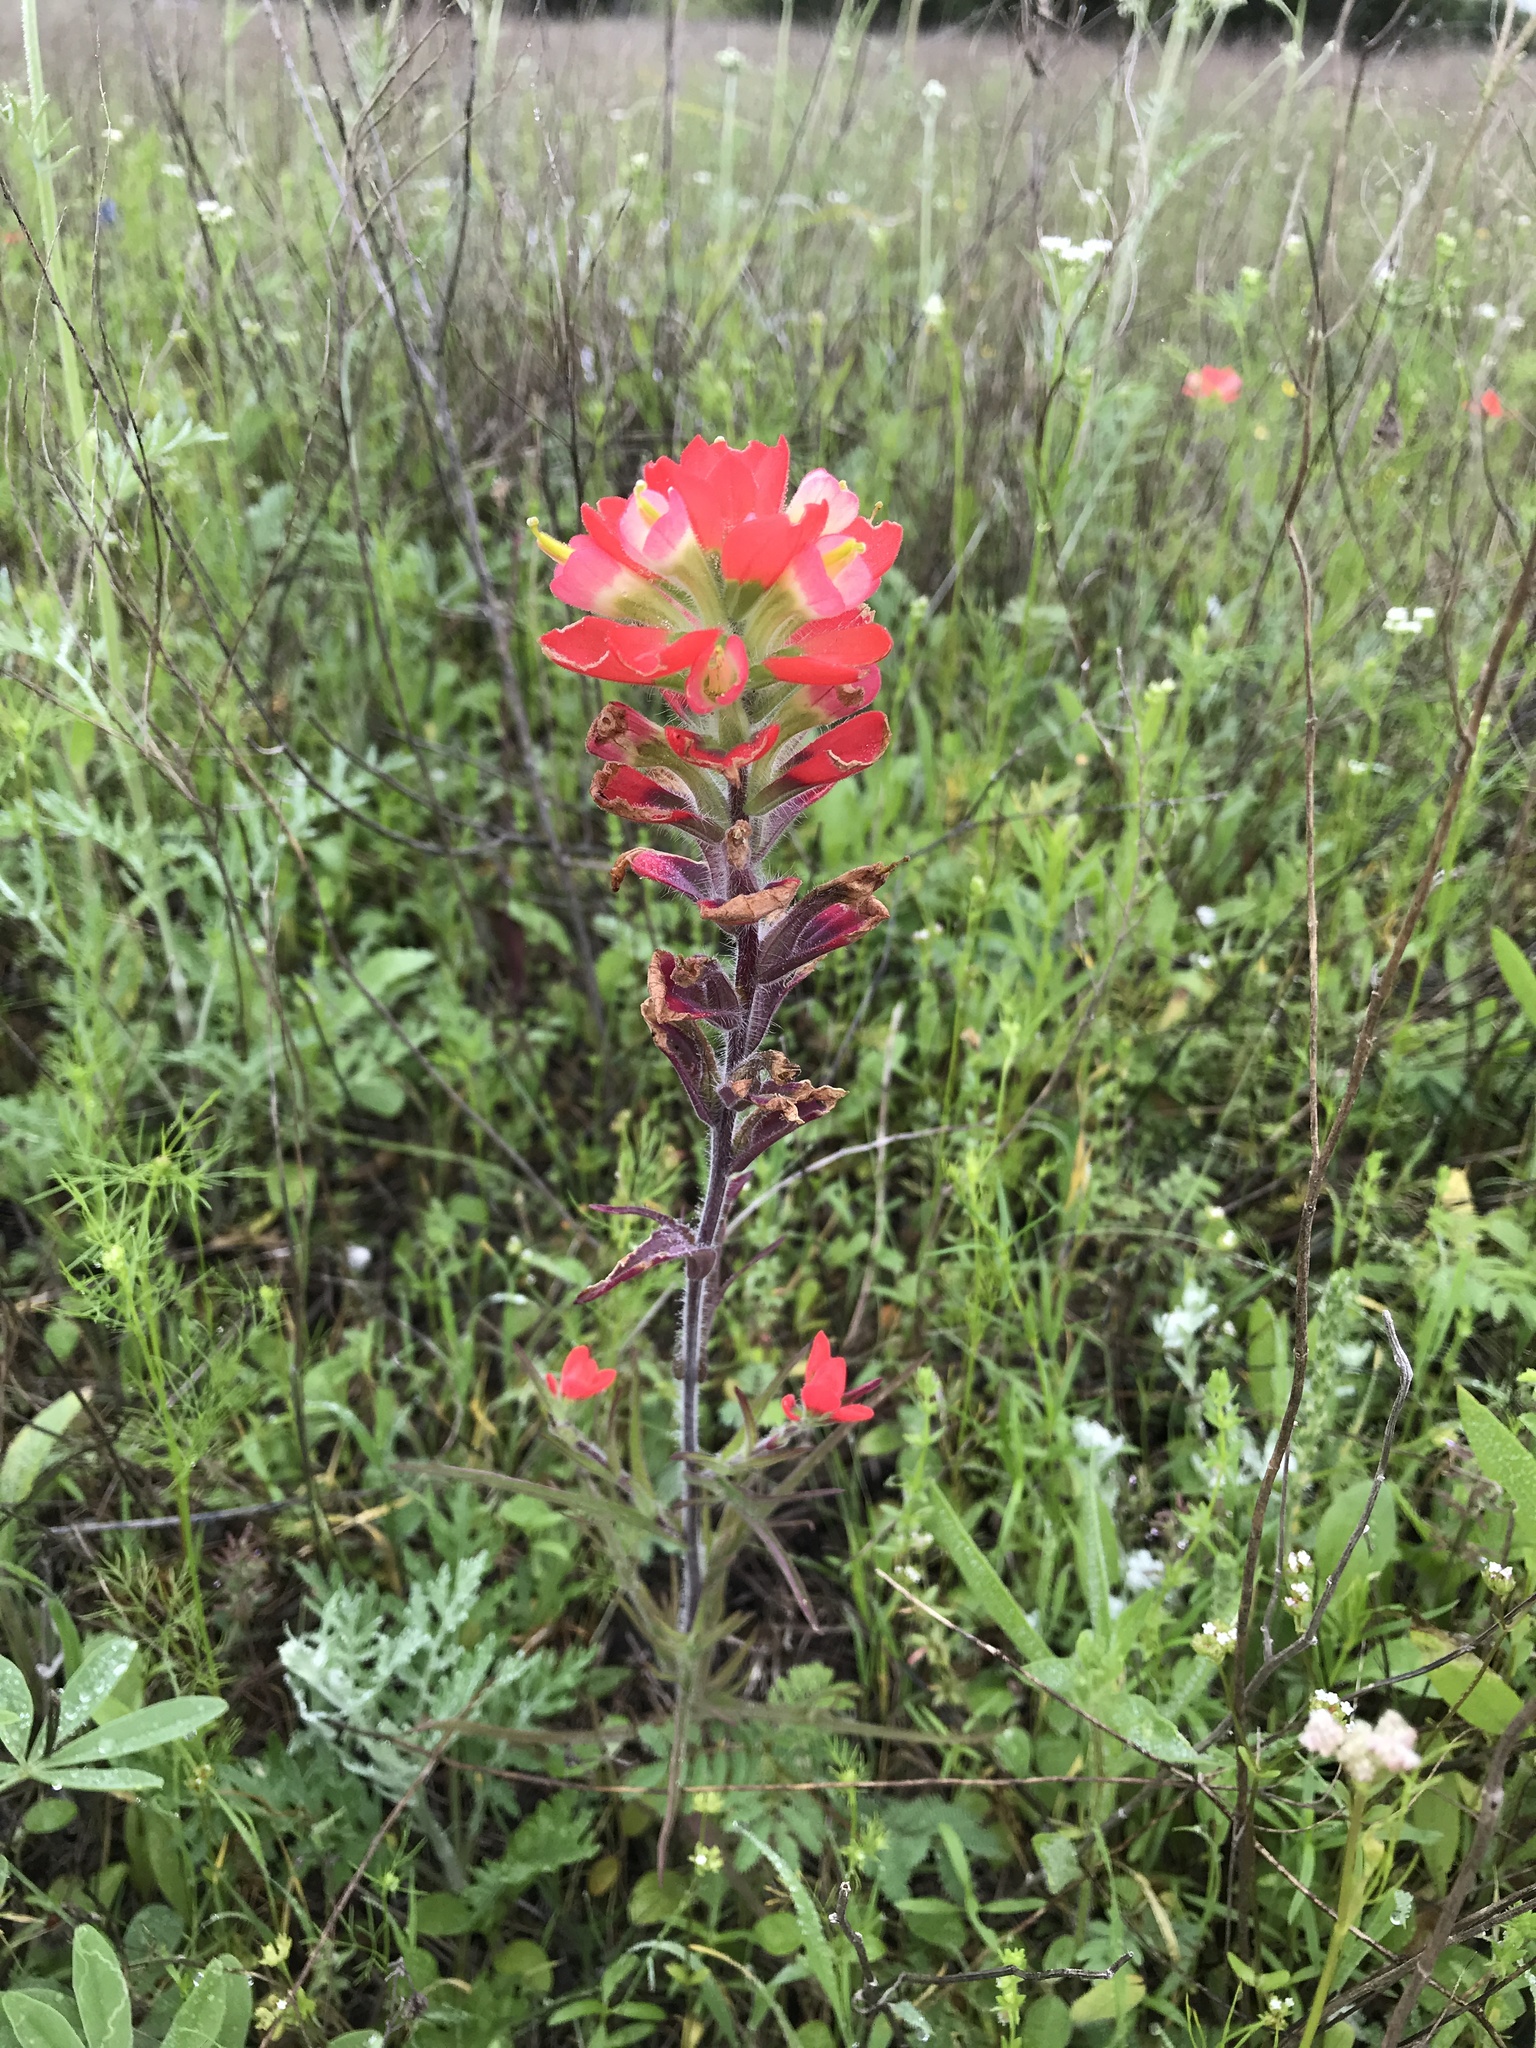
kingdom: Plantae
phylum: Tracheophyta
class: Magnoliopsida
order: Lamiales
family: Orobanchaceae
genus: Castilleja
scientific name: Castilleja indivisa
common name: Texas paintbrush
